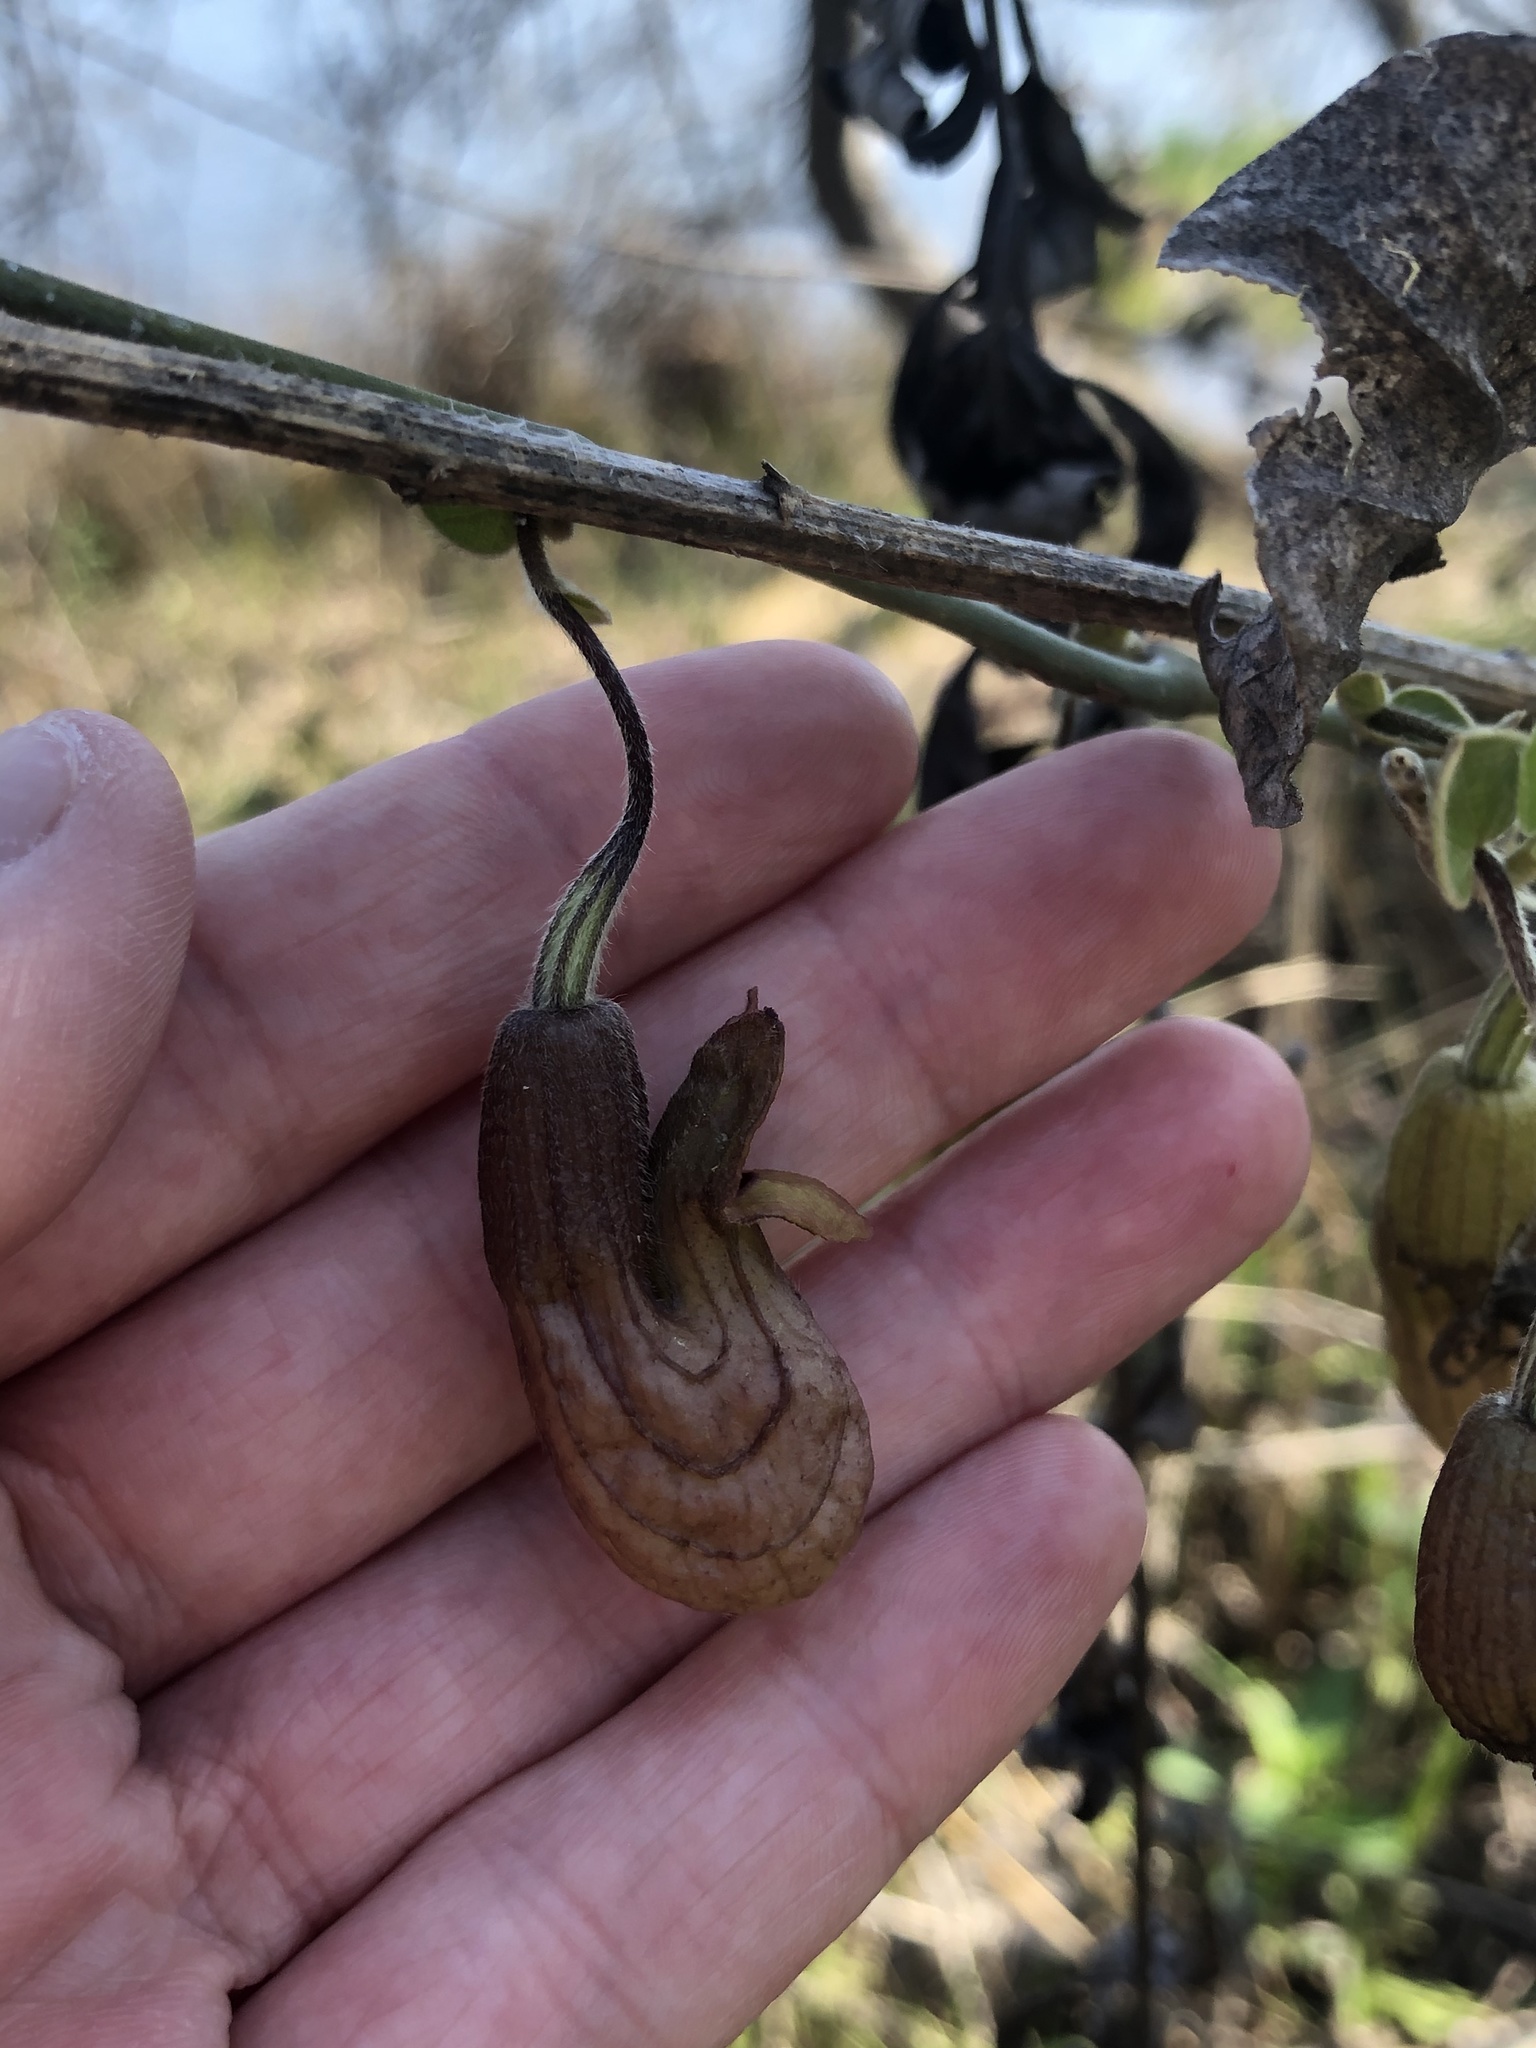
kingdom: Plantae
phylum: Tracheophyta
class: Magnoliopsida
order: Piperales
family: Aristolochiaceae
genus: Isotrema
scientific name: Isotrema californicum
